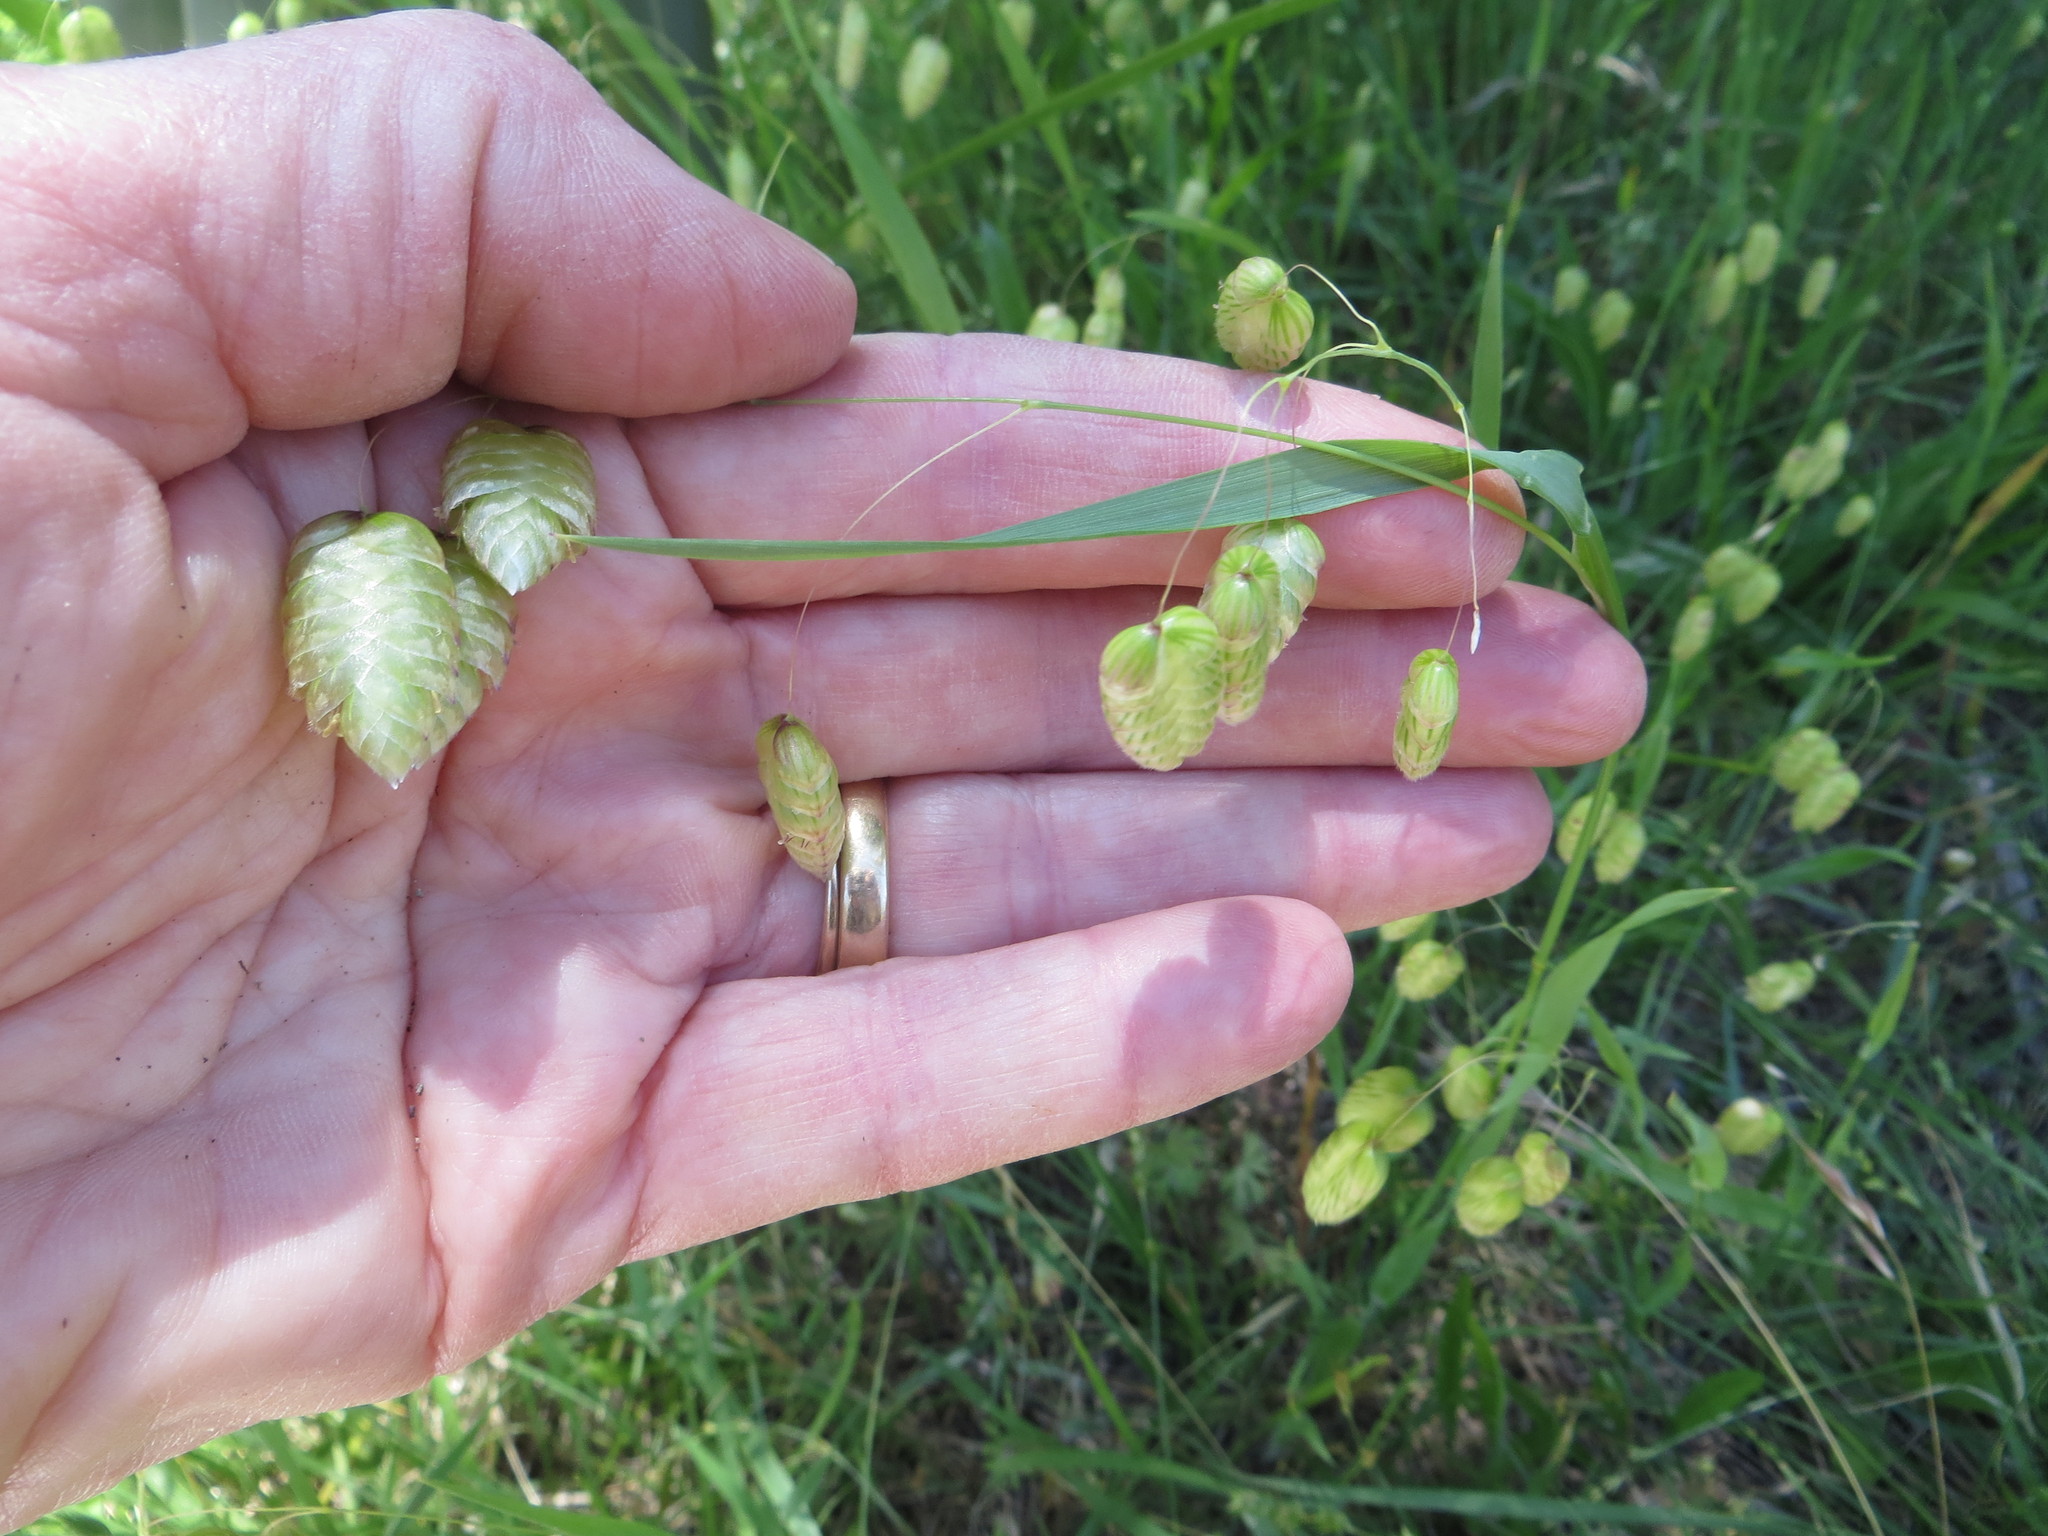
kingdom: Plantae
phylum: Tracheophyta
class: Liliopsida
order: Poales
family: Poaceae
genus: Briza
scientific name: Briza maxima
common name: Big quakinggrass
